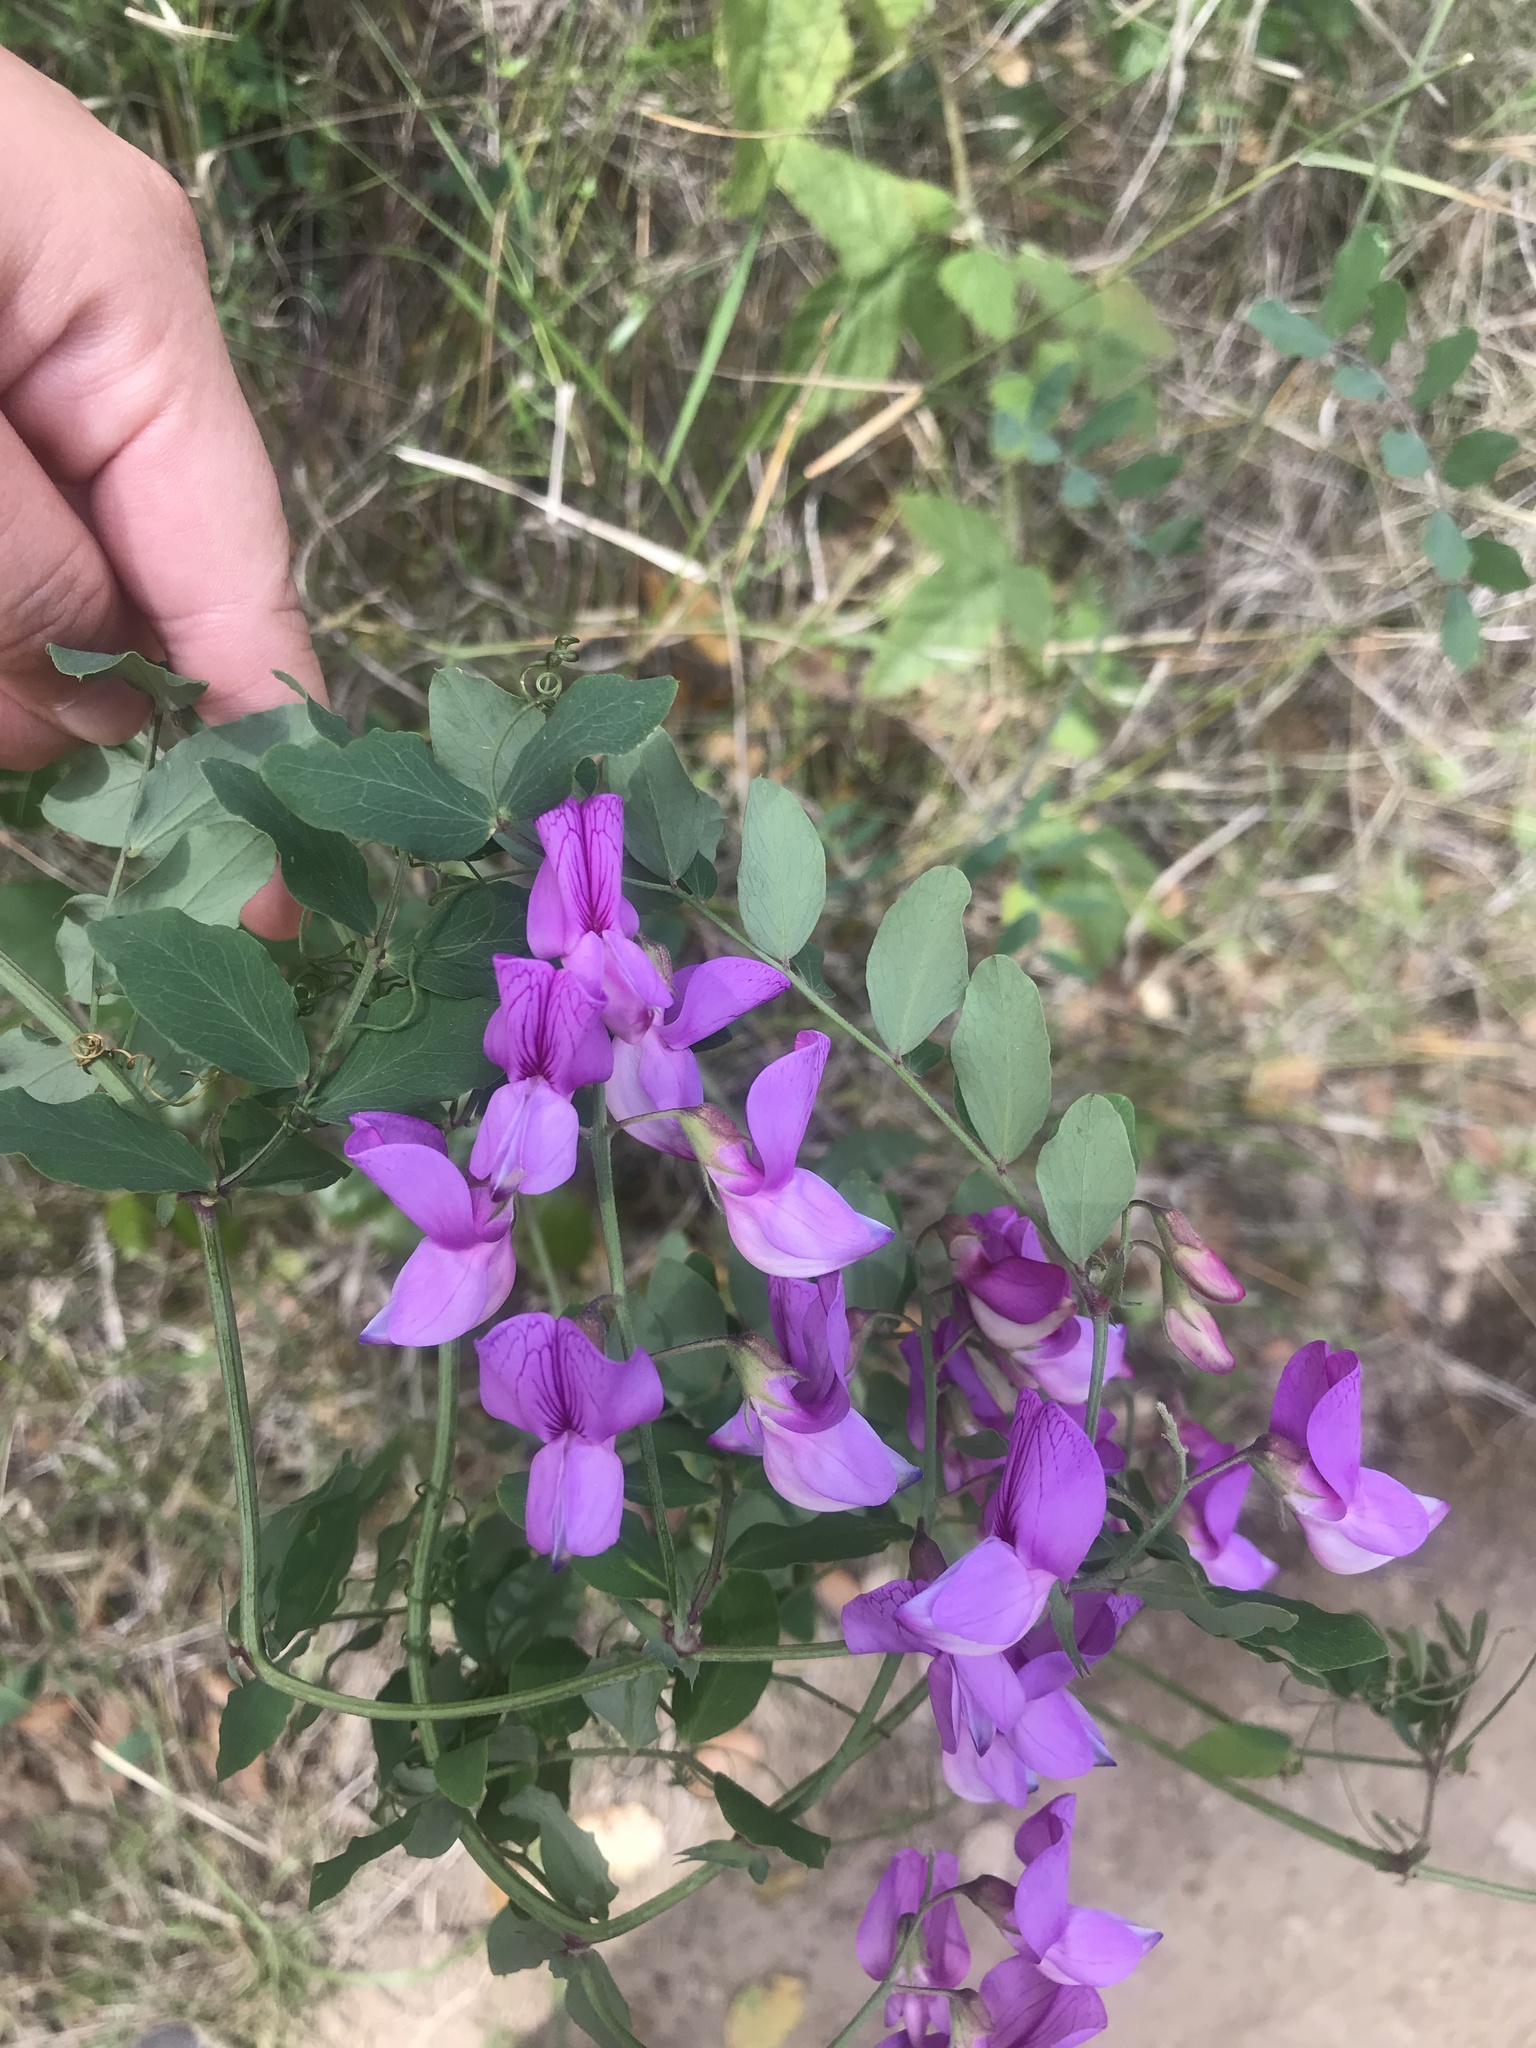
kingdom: Plantae
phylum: Tracheophyta
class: Magnoliopsida
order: Fabales
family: Fabaceae
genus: Lathyrus
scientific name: Lathyrus vestitus
